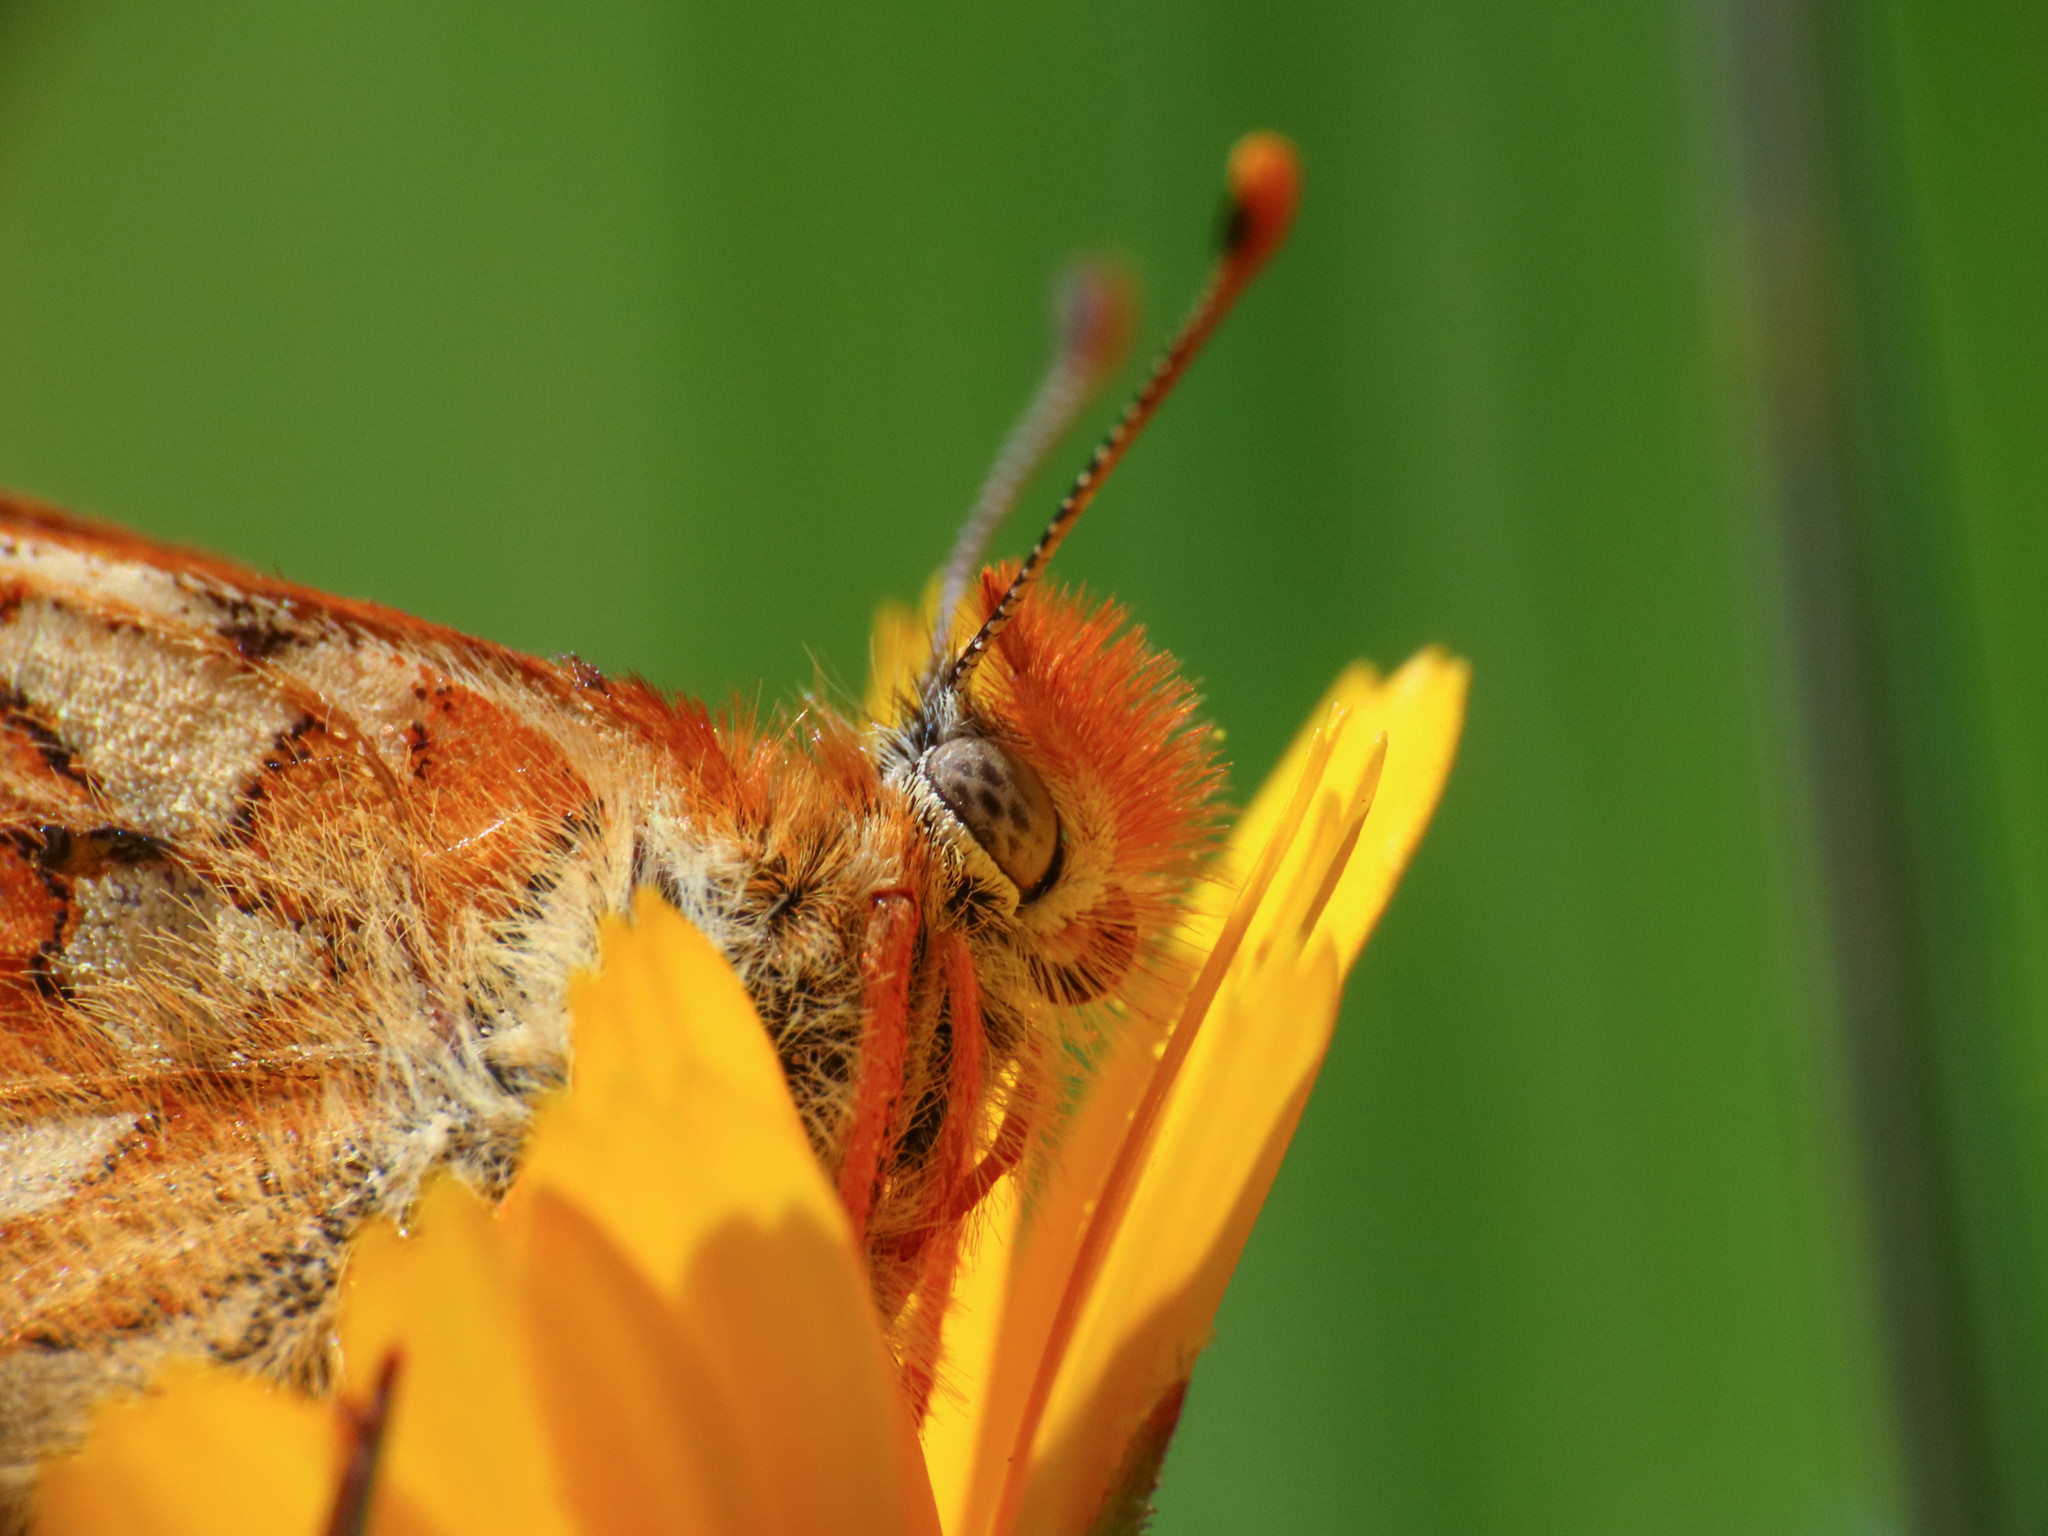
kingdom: Animalia
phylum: Arthropoda
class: Insecta
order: Lepidoptera
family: Nymphalidae
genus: Euphydryas
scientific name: Euphydryas aurinia
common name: Marsh fritillary
